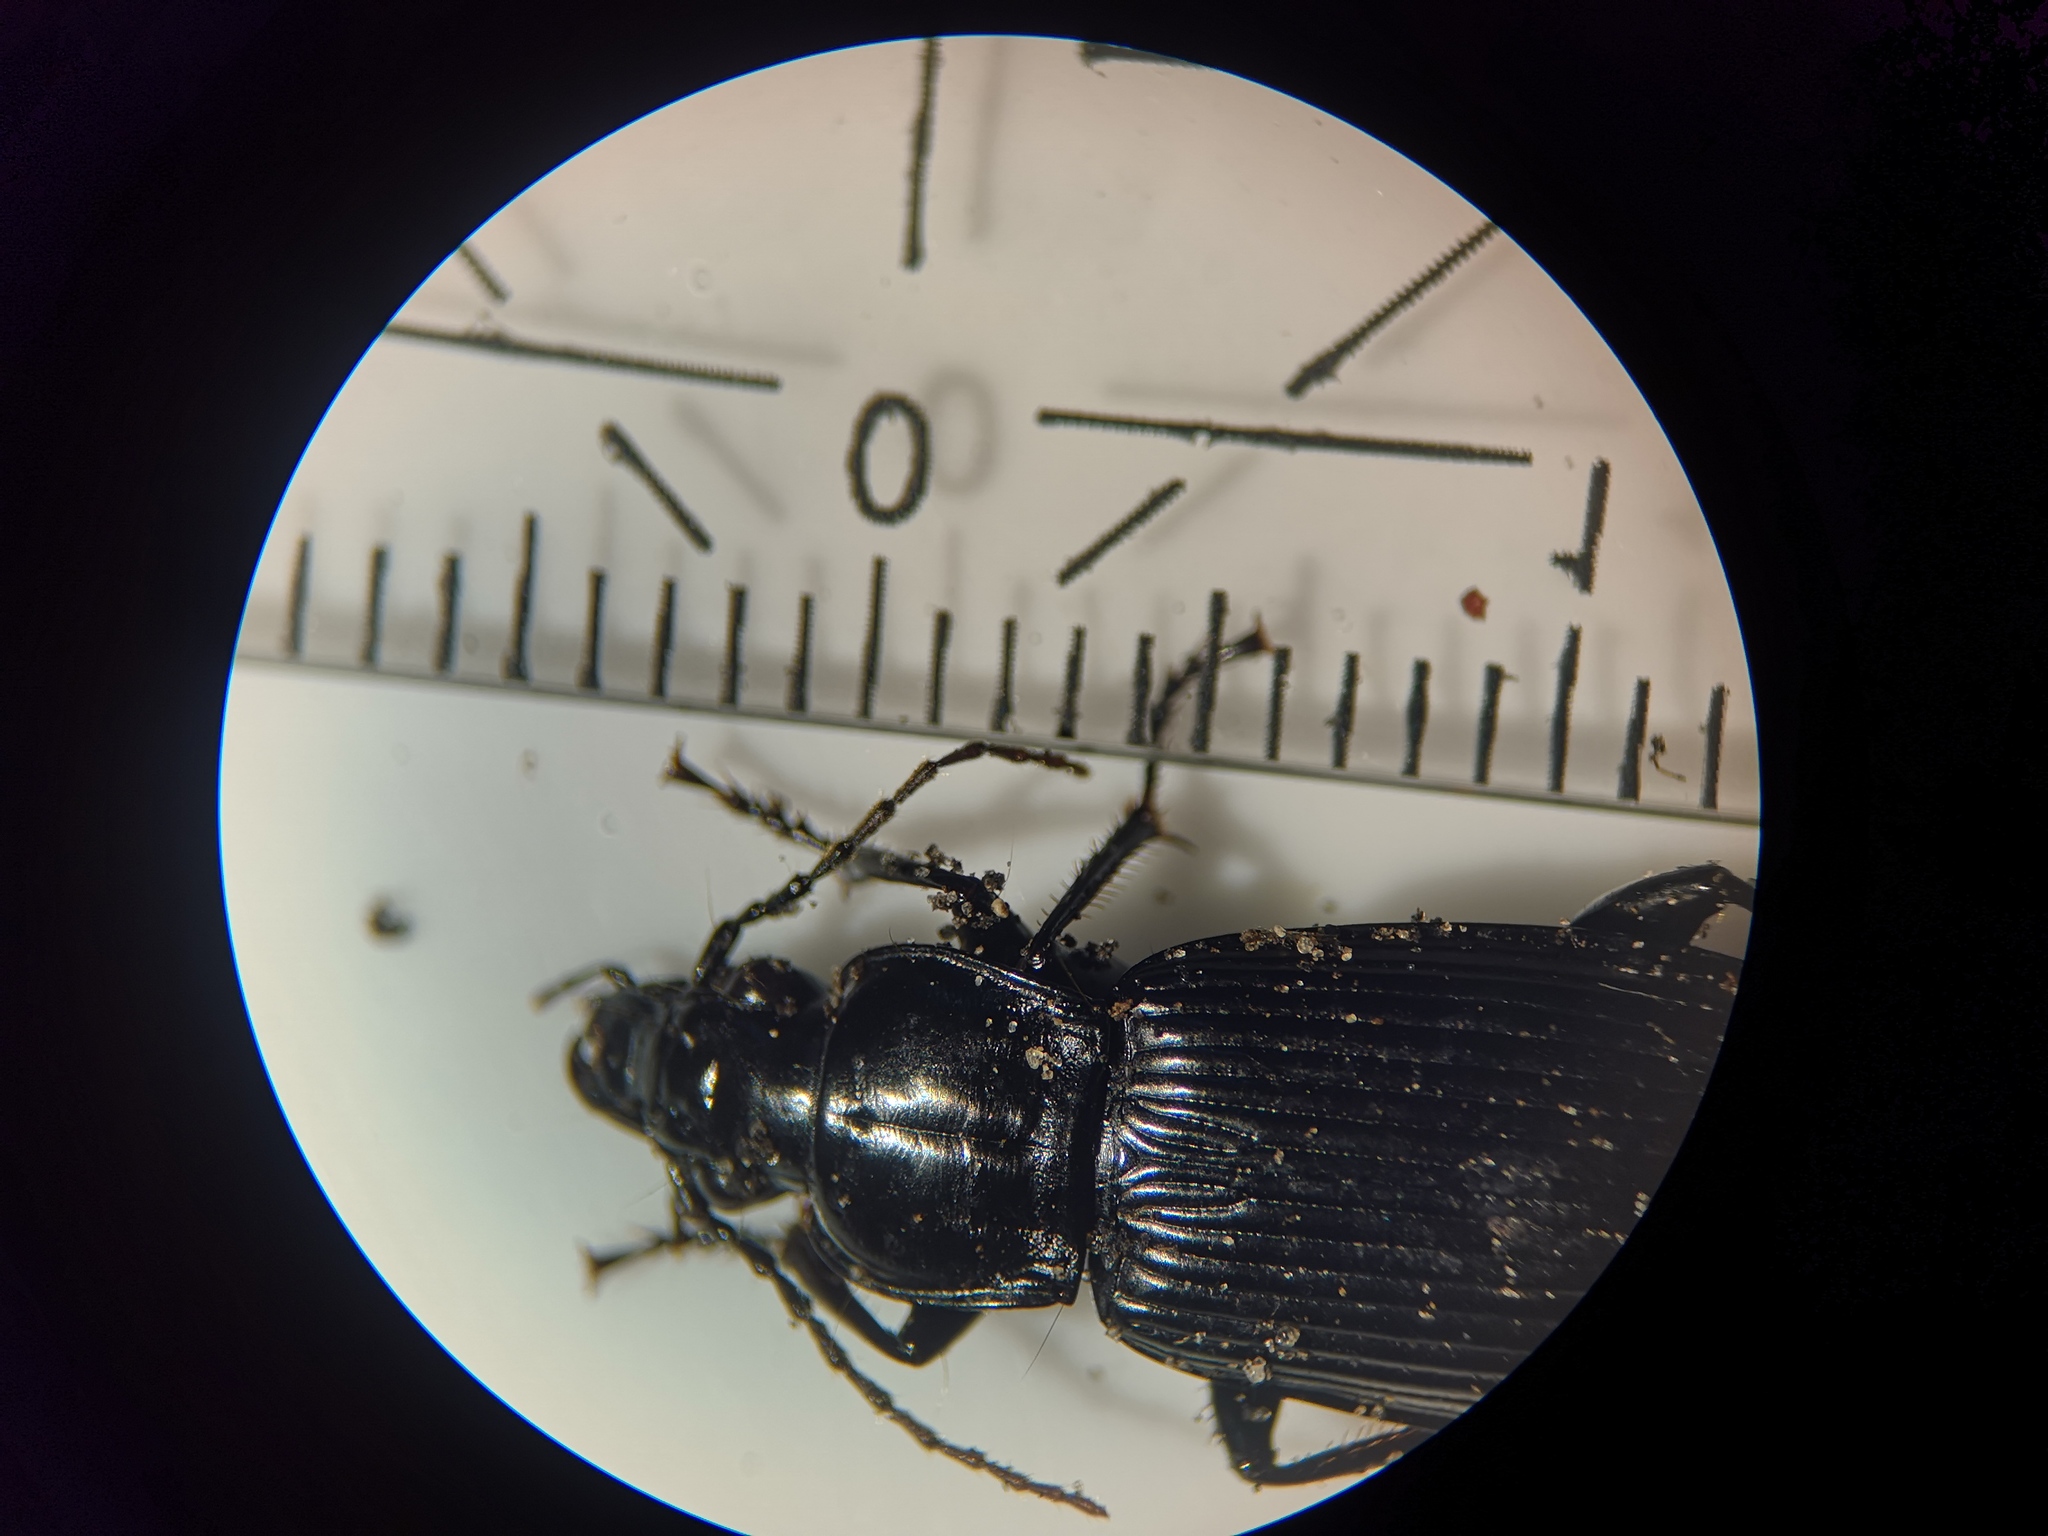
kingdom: Animalia
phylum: Arthropoda
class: Insecta
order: Coleoptera
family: Carabidae
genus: Pterostichus
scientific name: Pterostichus niger
